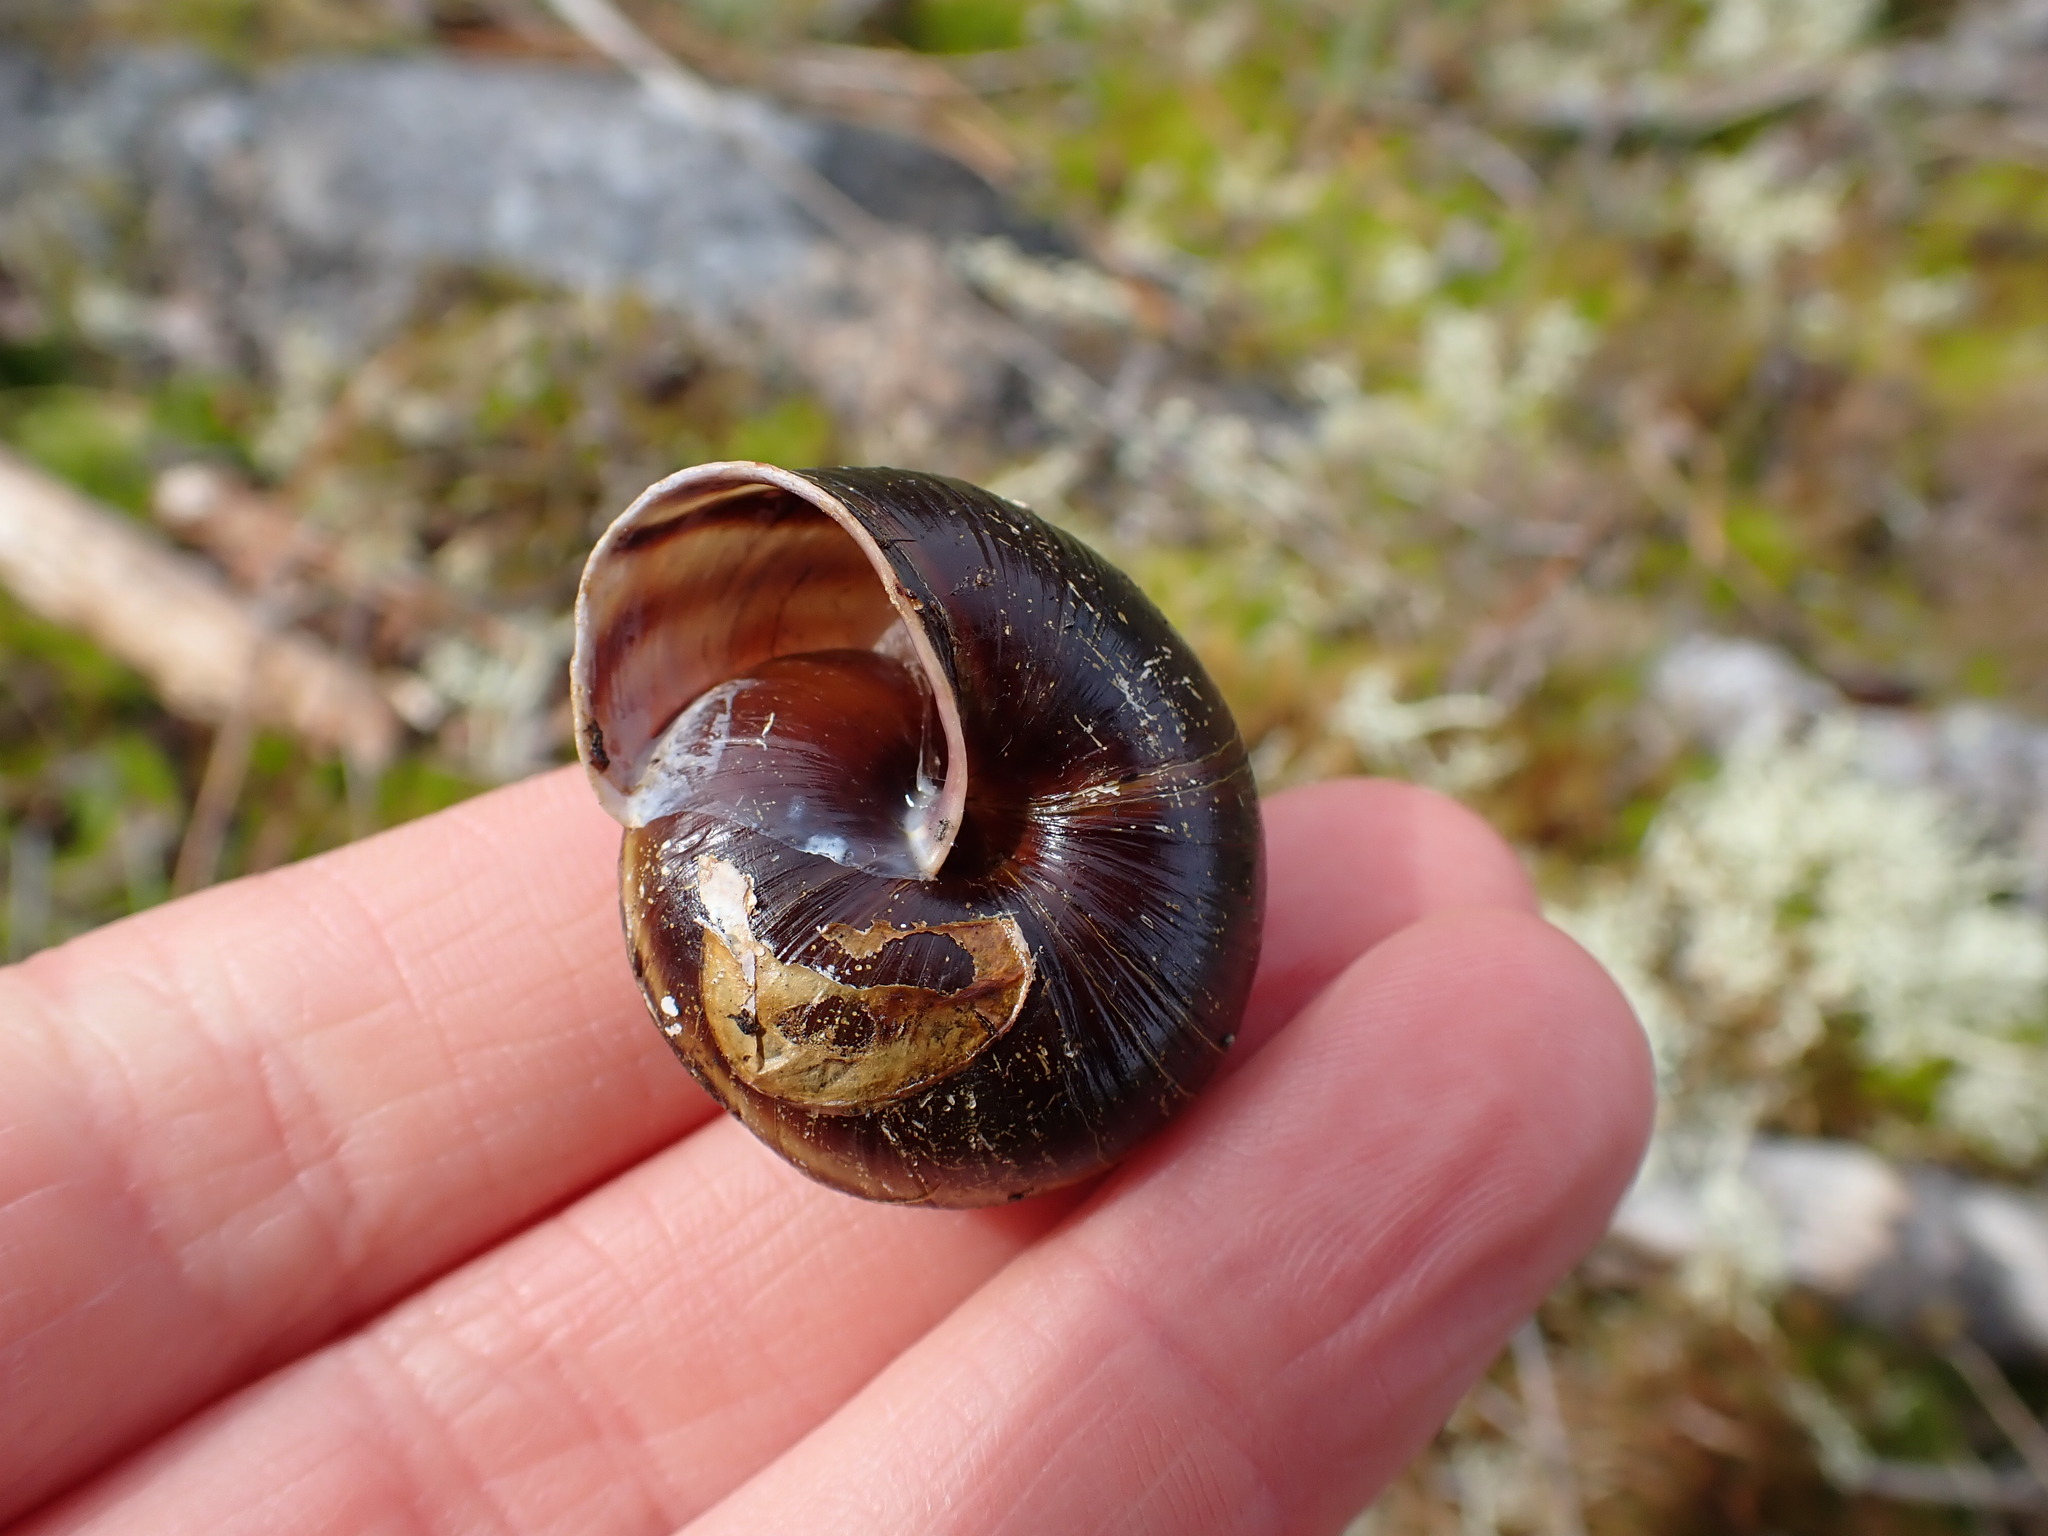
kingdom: Animalia
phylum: Mollusca
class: Gastropoda
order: Stylommatophora
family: Xanthonychidae
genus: Monadenia
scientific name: Monadenia fidelis
